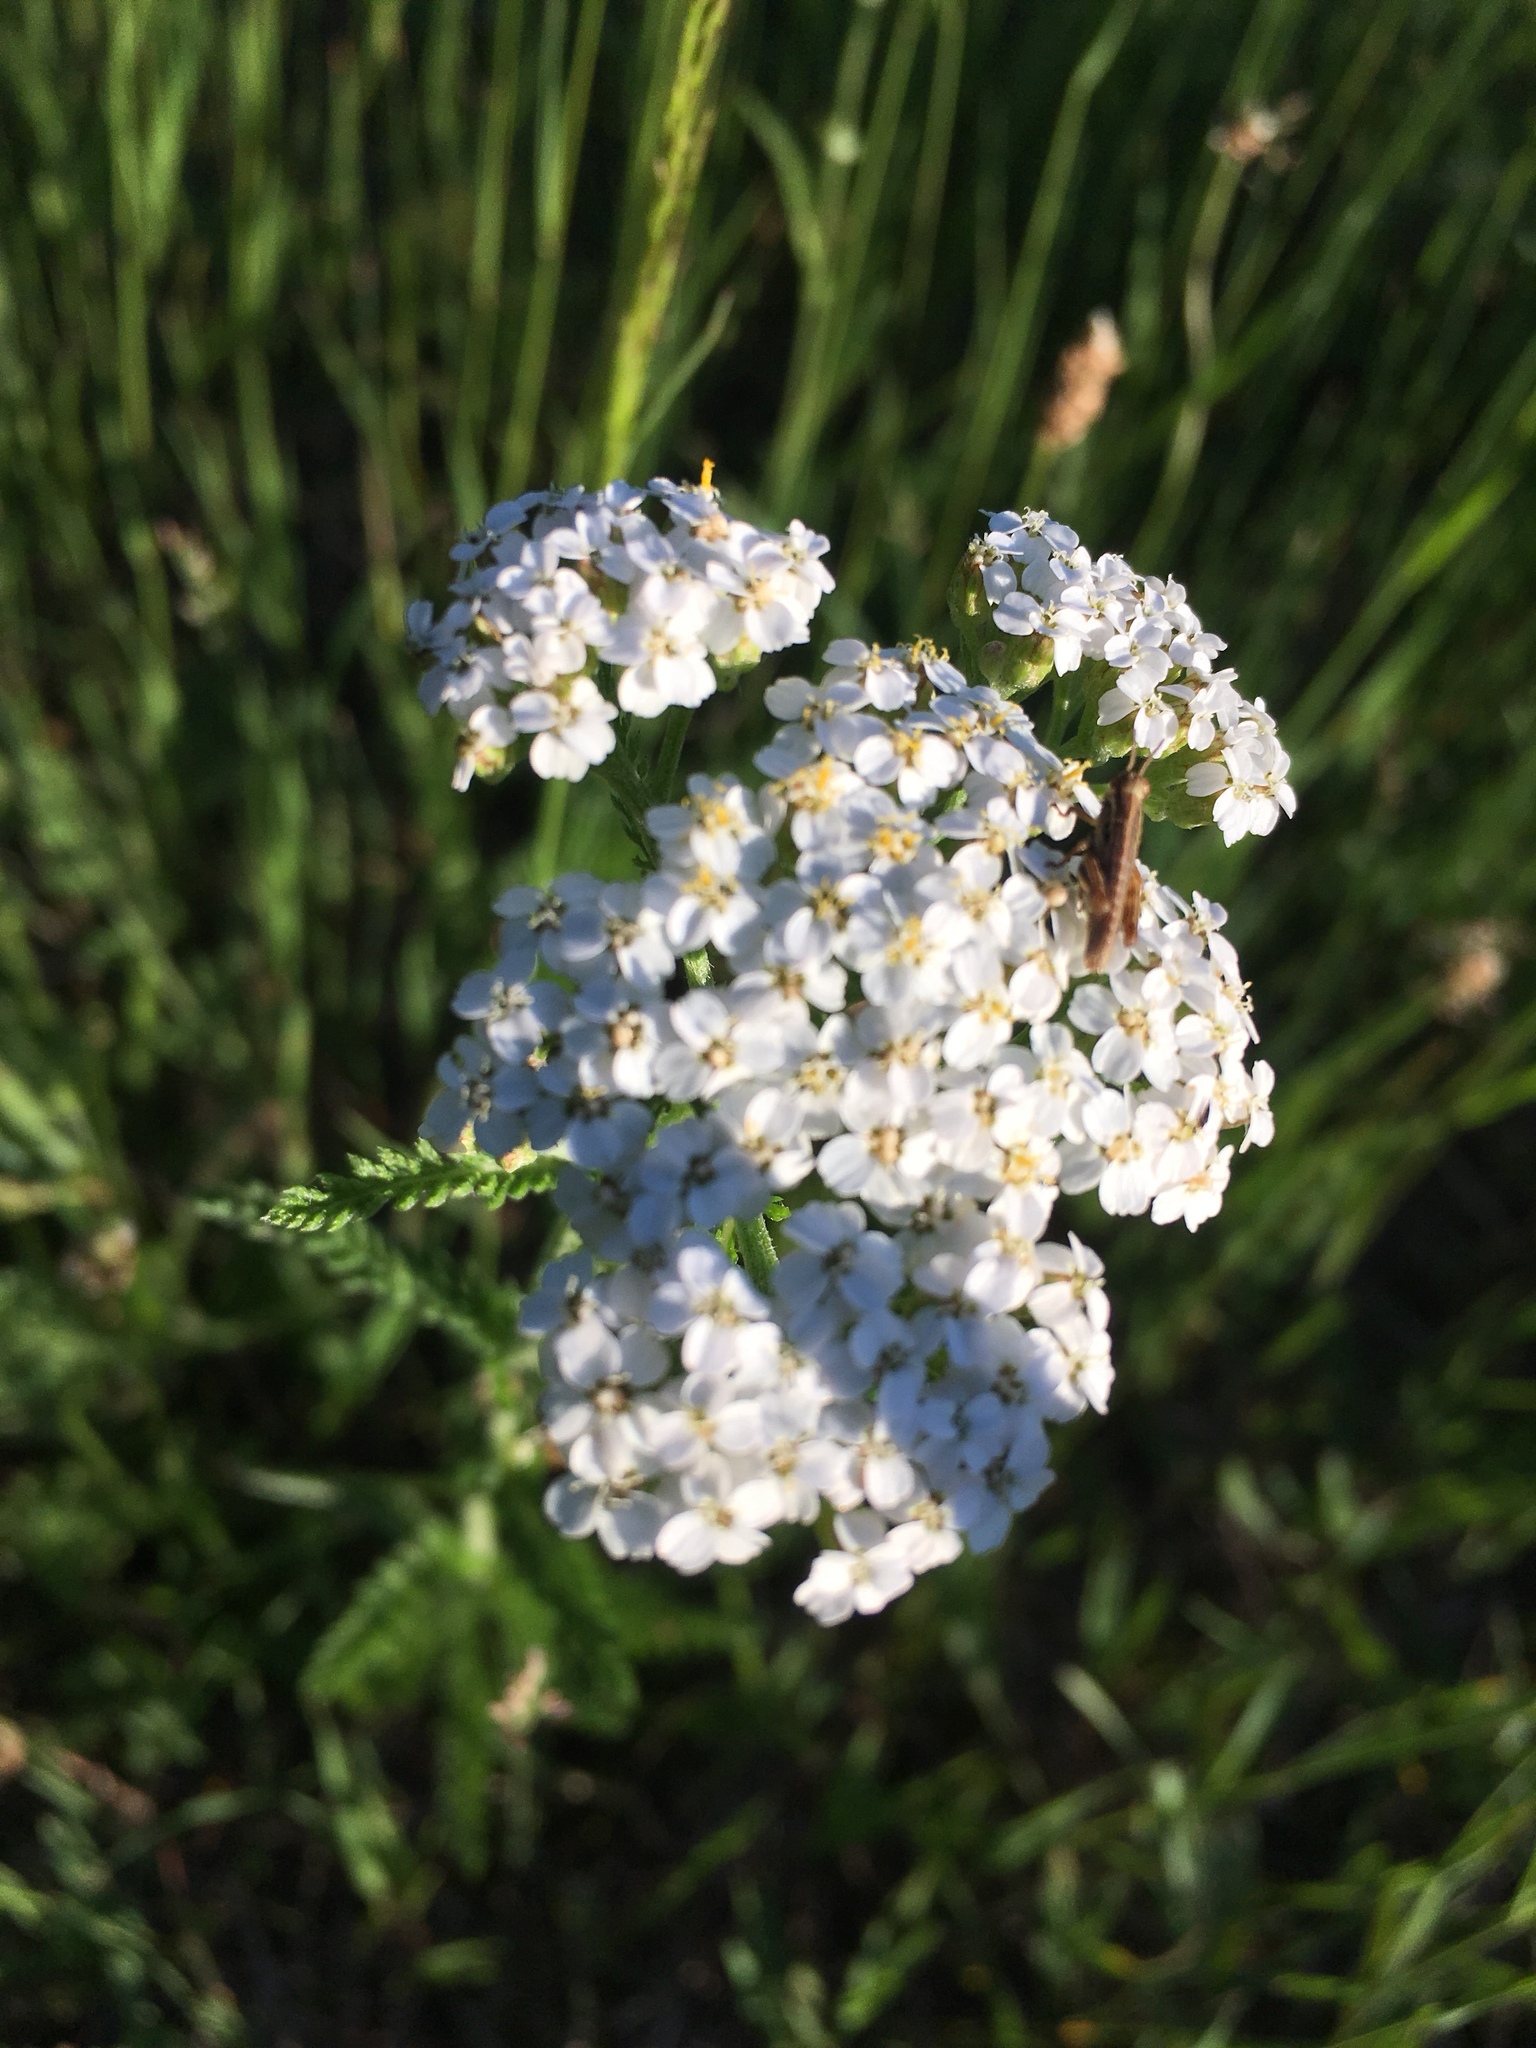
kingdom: Plantae
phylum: Tracheophyta
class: Magnoliopsida
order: Asterales
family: Asteraceae
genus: Achillea
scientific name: Achillea millefolium
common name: Yarrow
